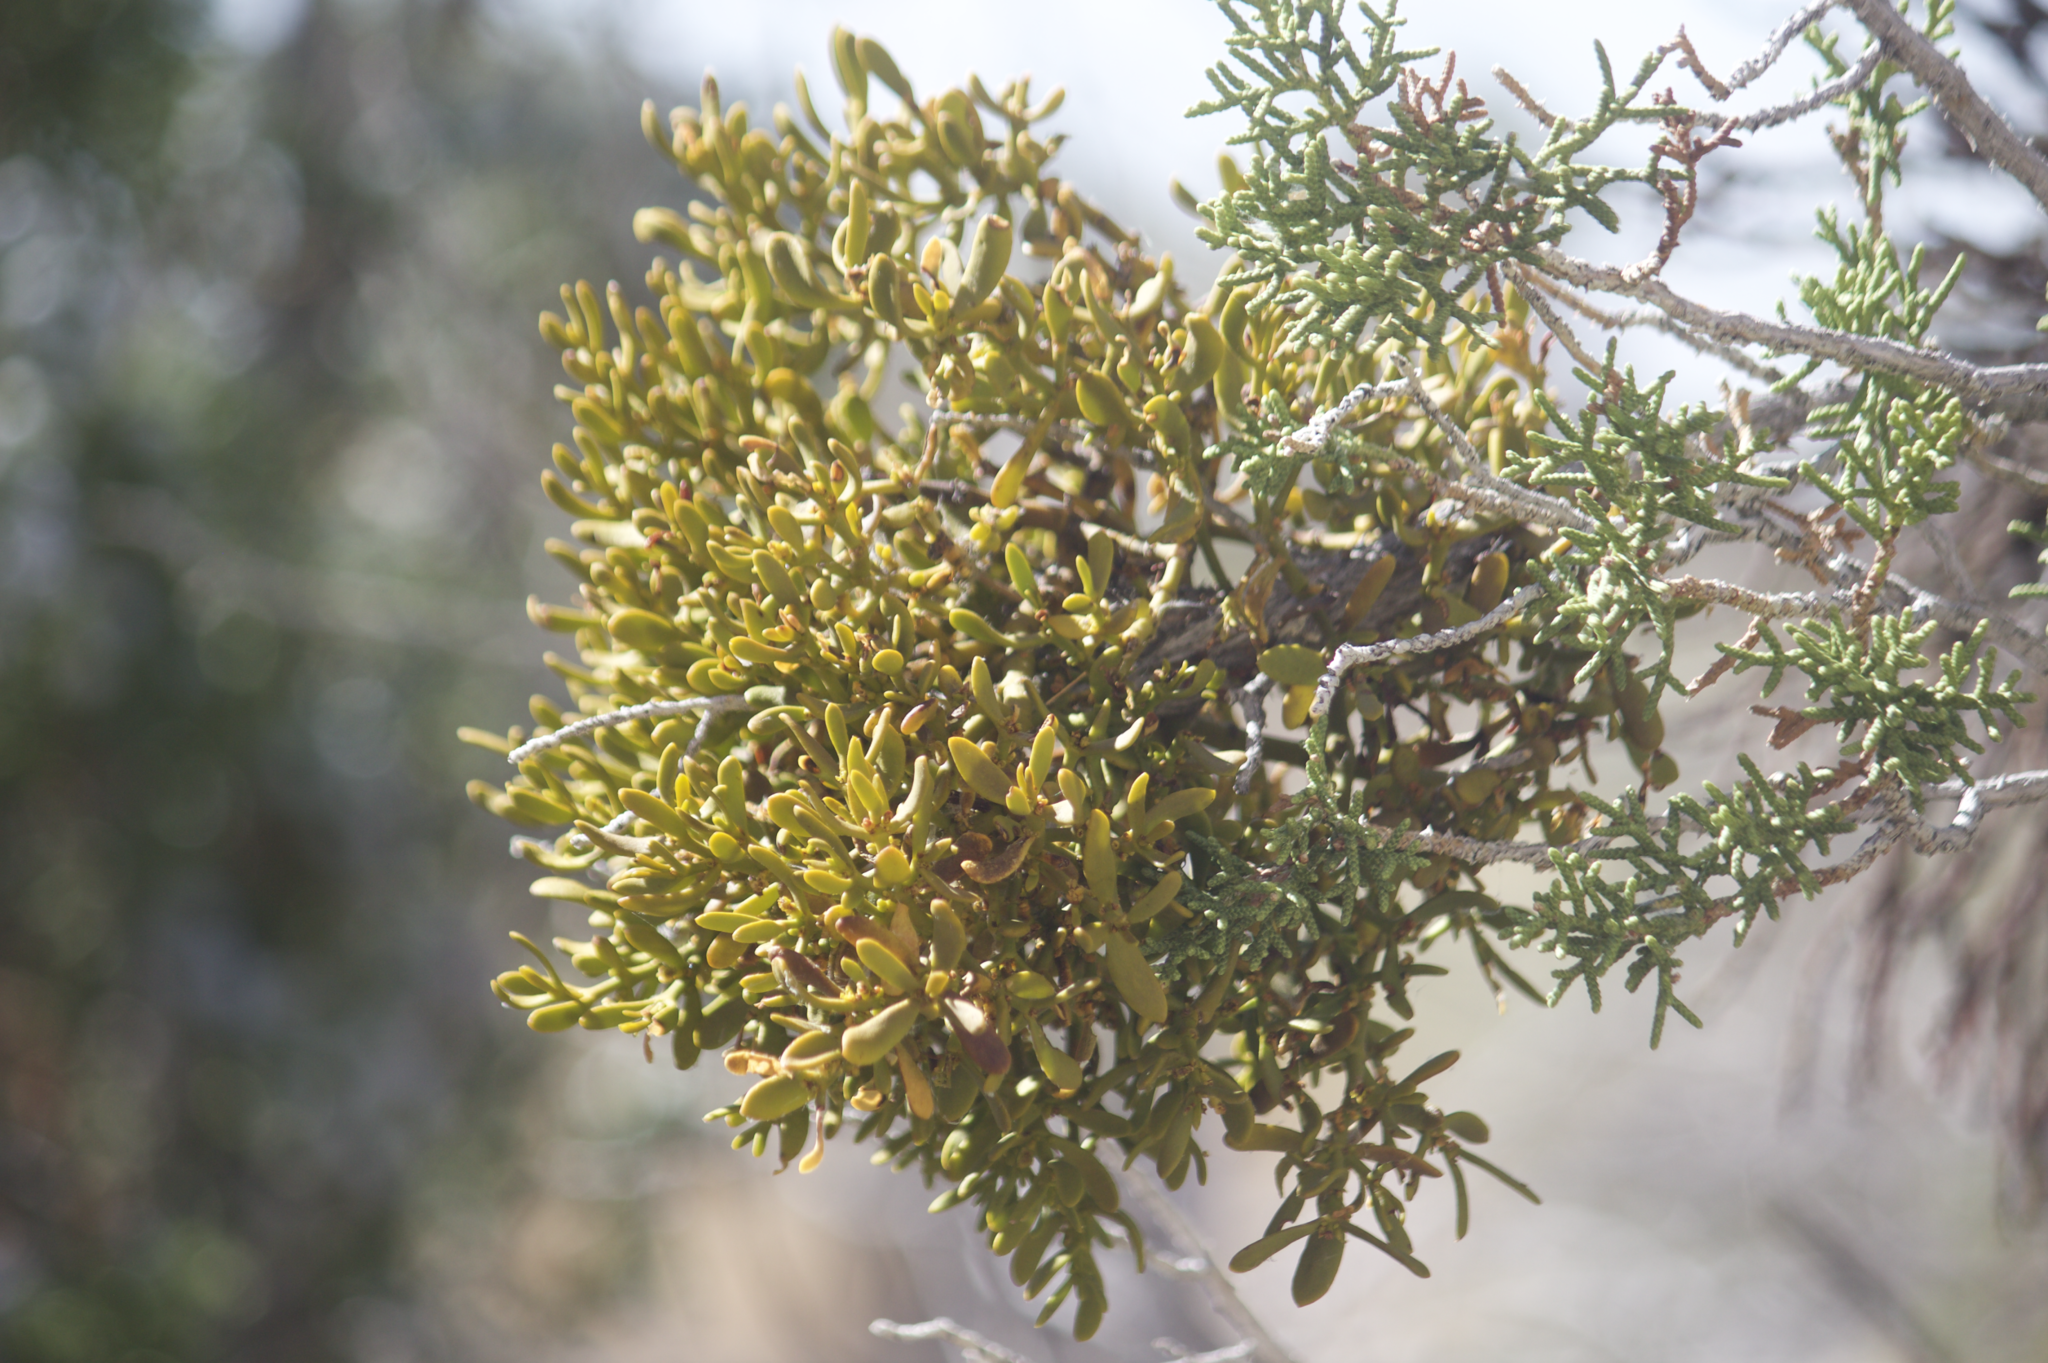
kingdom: Plantae
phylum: Tracheophyta
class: Magnoliopsida
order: Santalales
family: Viscaceae
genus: Phoradendron
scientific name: Phoradendron bolleanum
